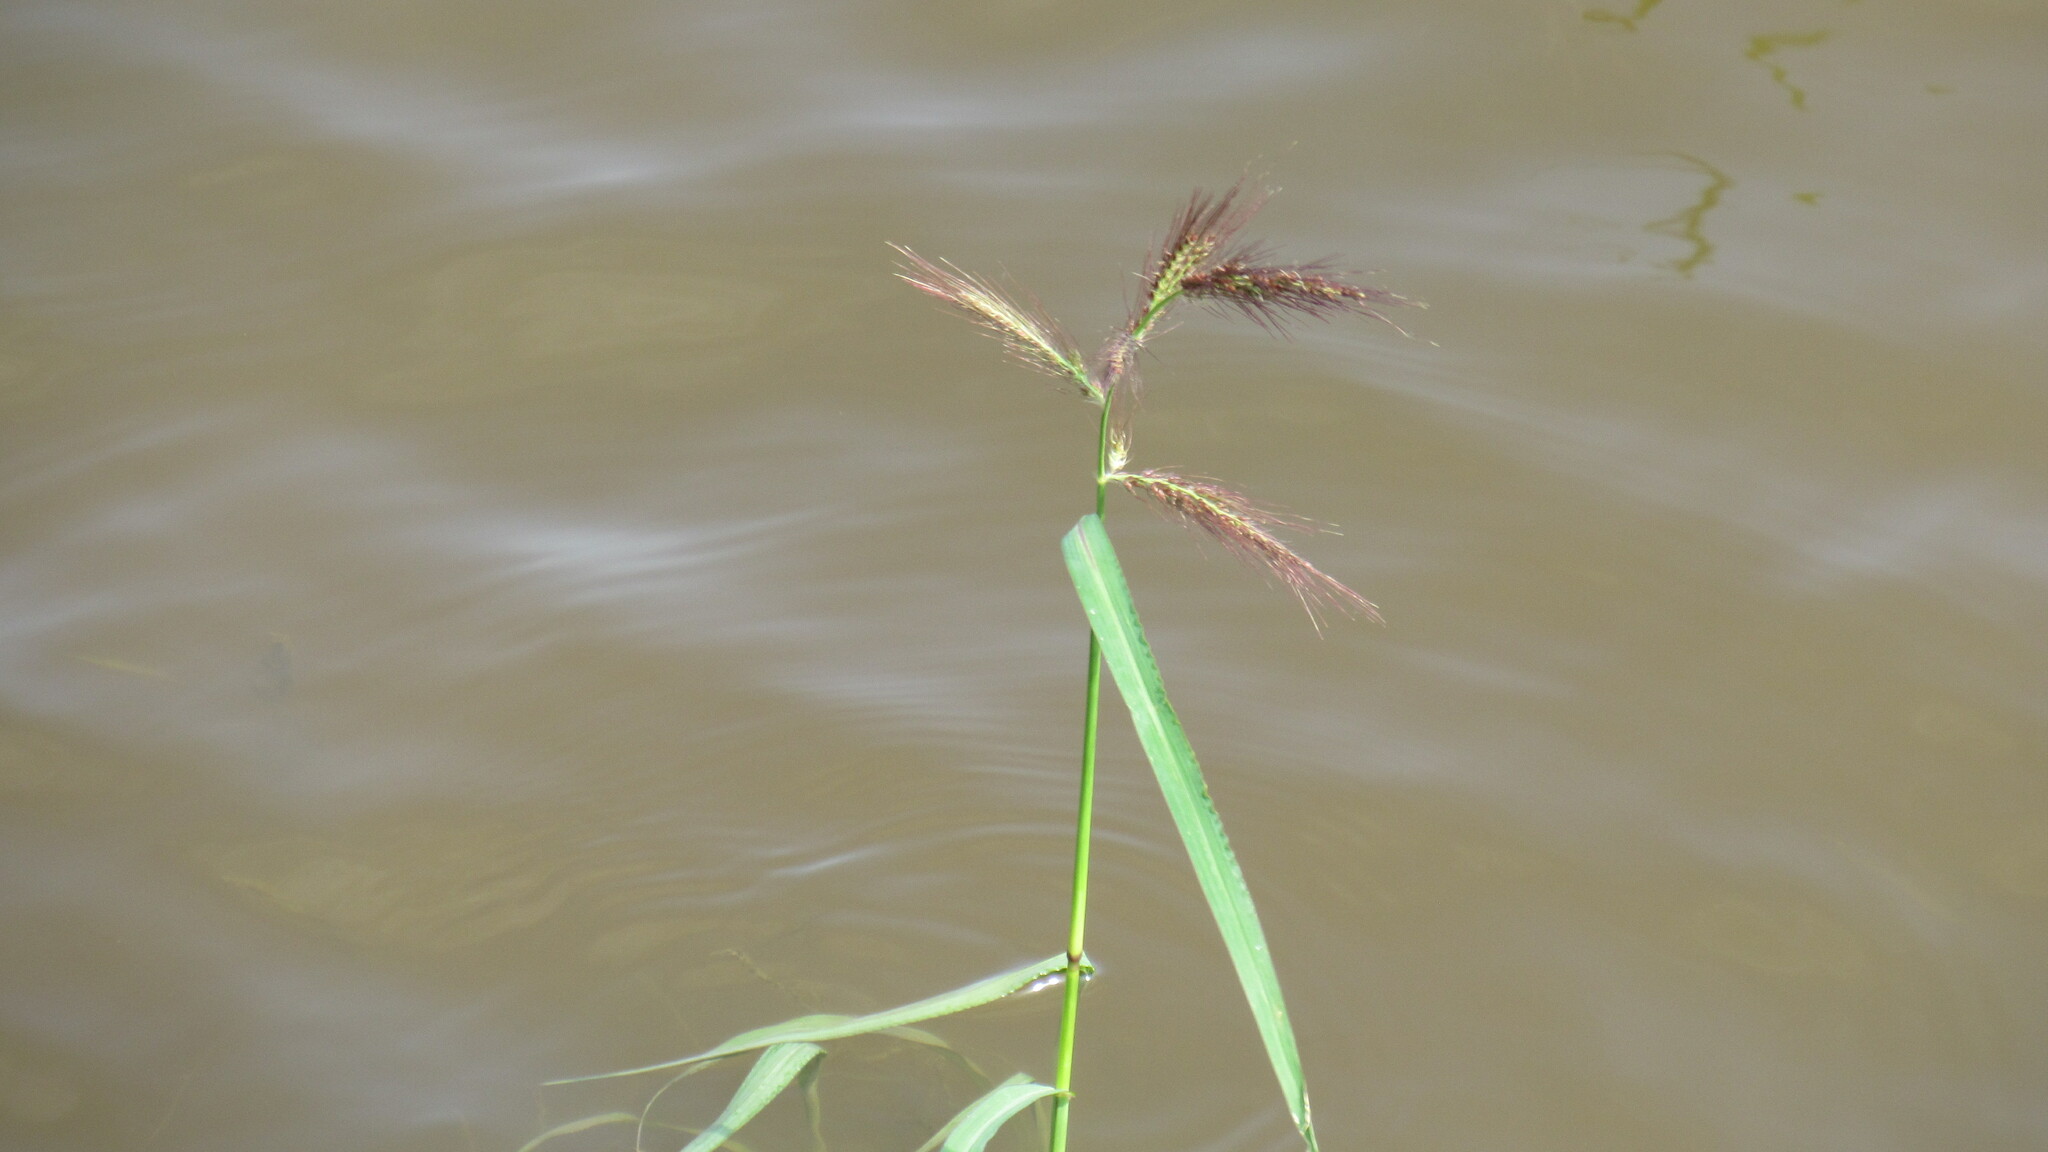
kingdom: Plantae
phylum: Tracheophyta
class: Liliopsida
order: Poales
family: Poaceae
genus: Echinochloa
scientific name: Echinochloa crus-galli
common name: Cockspur
